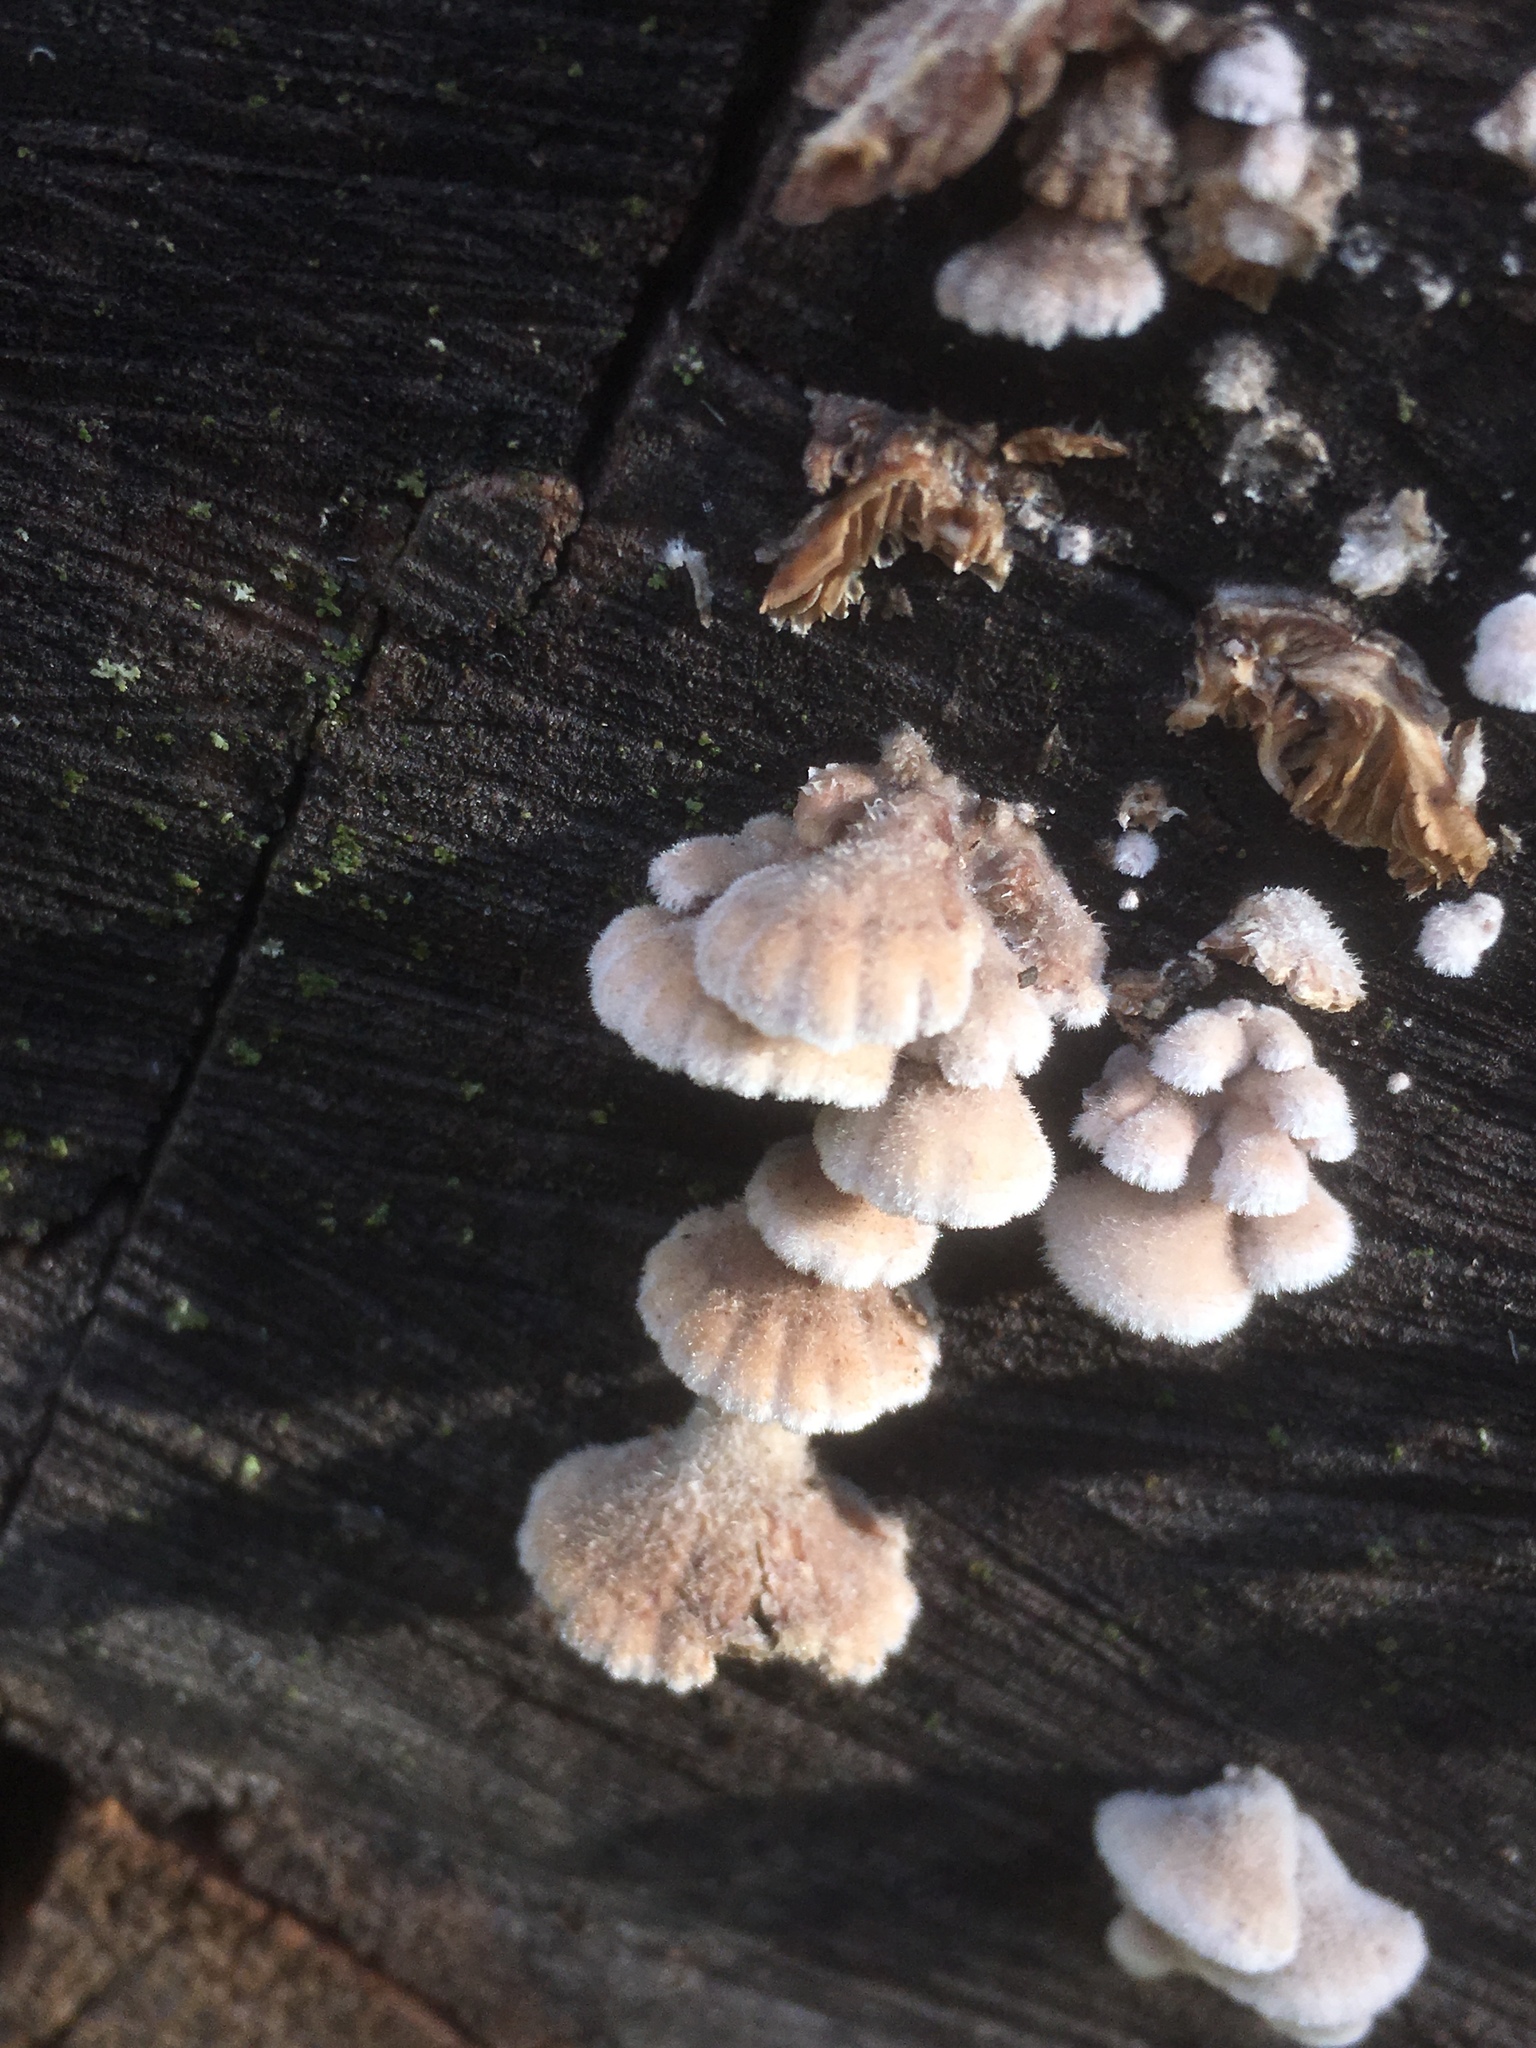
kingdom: Fungi
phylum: Basidiomycota
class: Agaricomycetes
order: Agaricales
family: Schizophyllaceae
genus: Schizophyllum
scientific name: Schizophyllum commune
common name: Common porecrust
